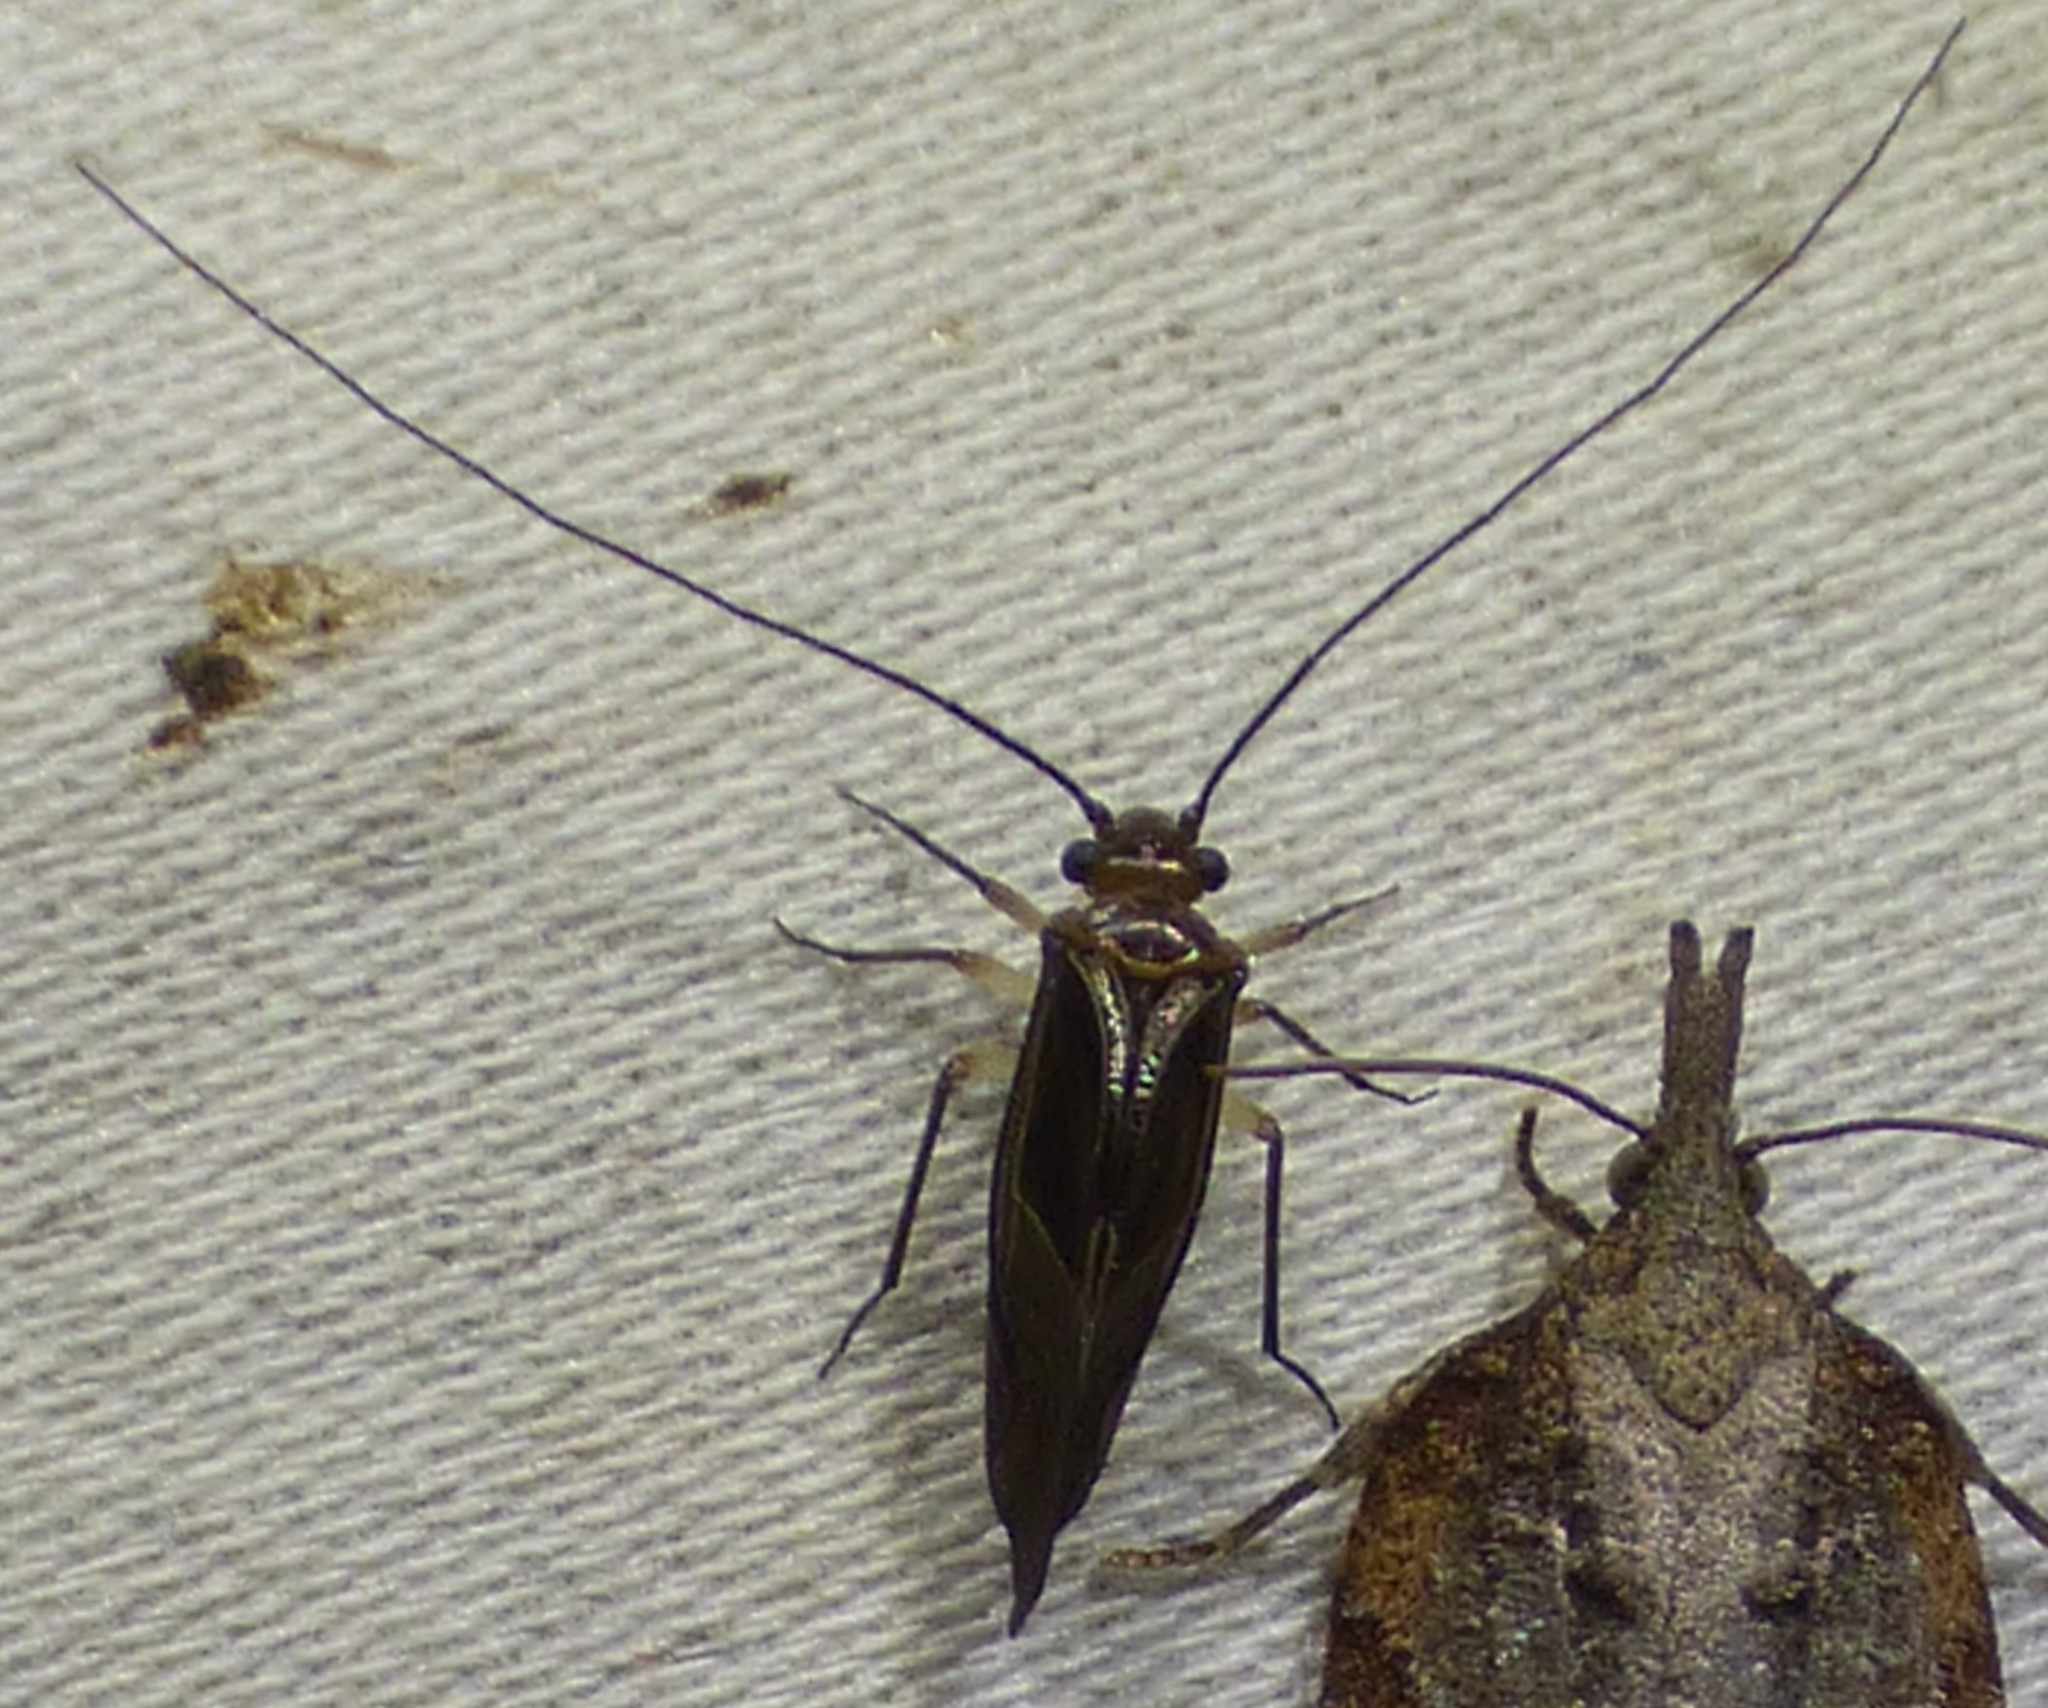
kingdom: Animalia
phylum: Arthropoda
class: Insecta
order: Psocodea
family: Psocidae
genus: Cerastipsocus
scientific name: Cerastipsocus venosus
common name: Tree cattle
